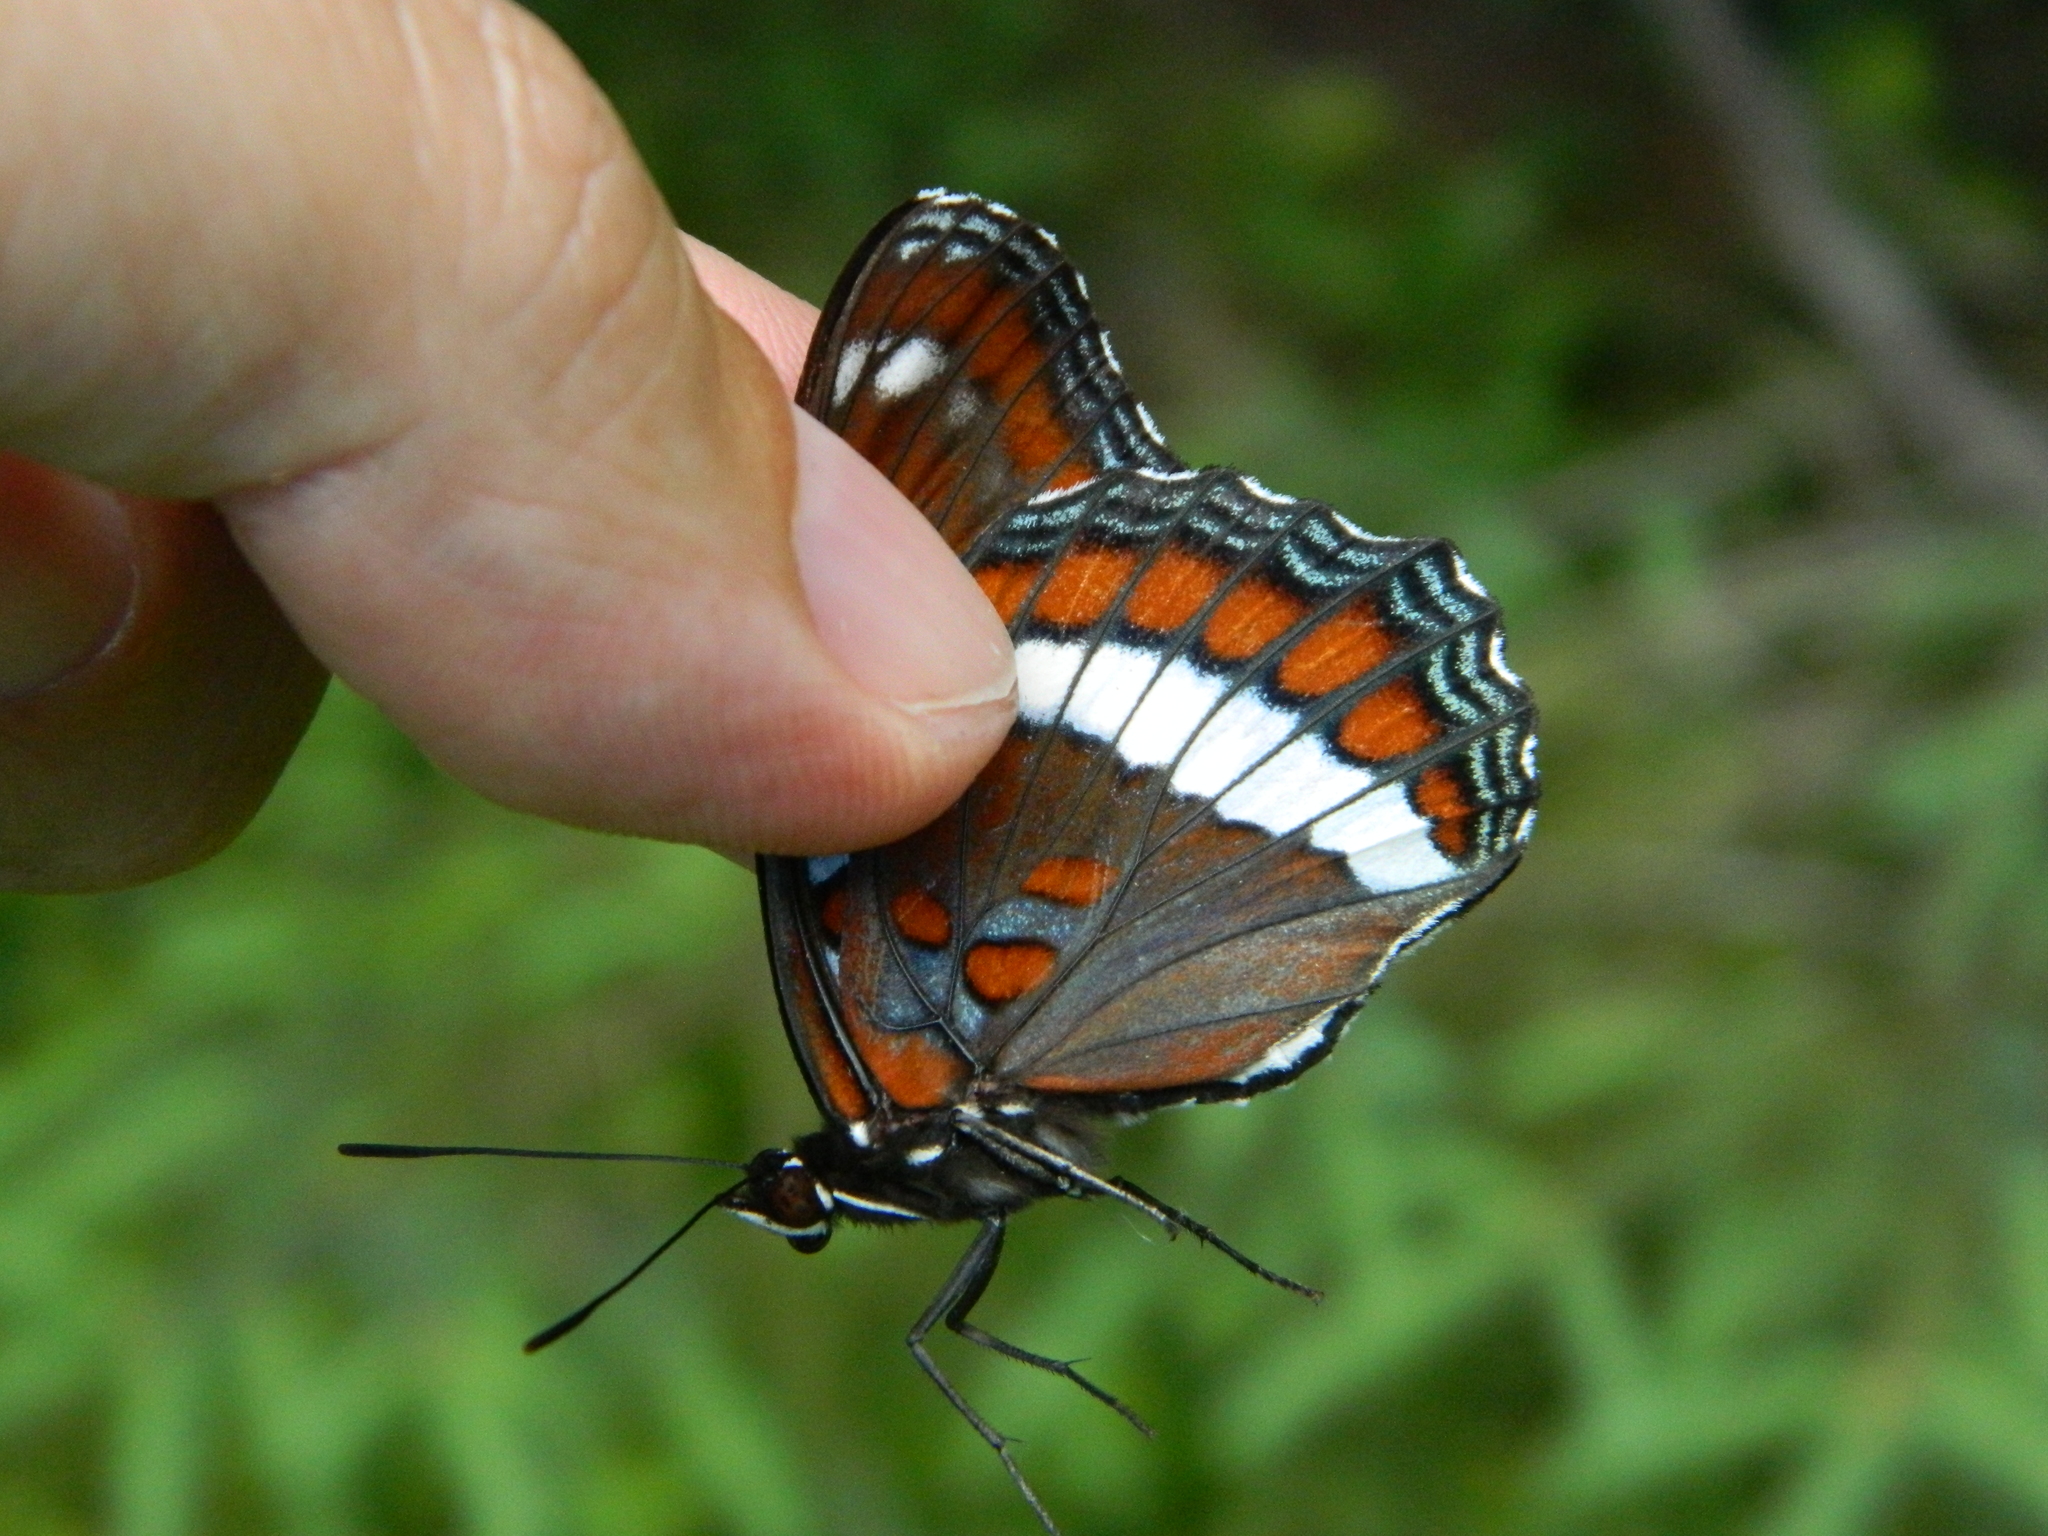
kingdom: Animalia
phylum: Arthropoda
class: Insecta
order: Lepidoptera
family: Nymphalidae
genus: Limenitis
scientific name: Limenitis arthemis
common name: Red-spotted admiral
